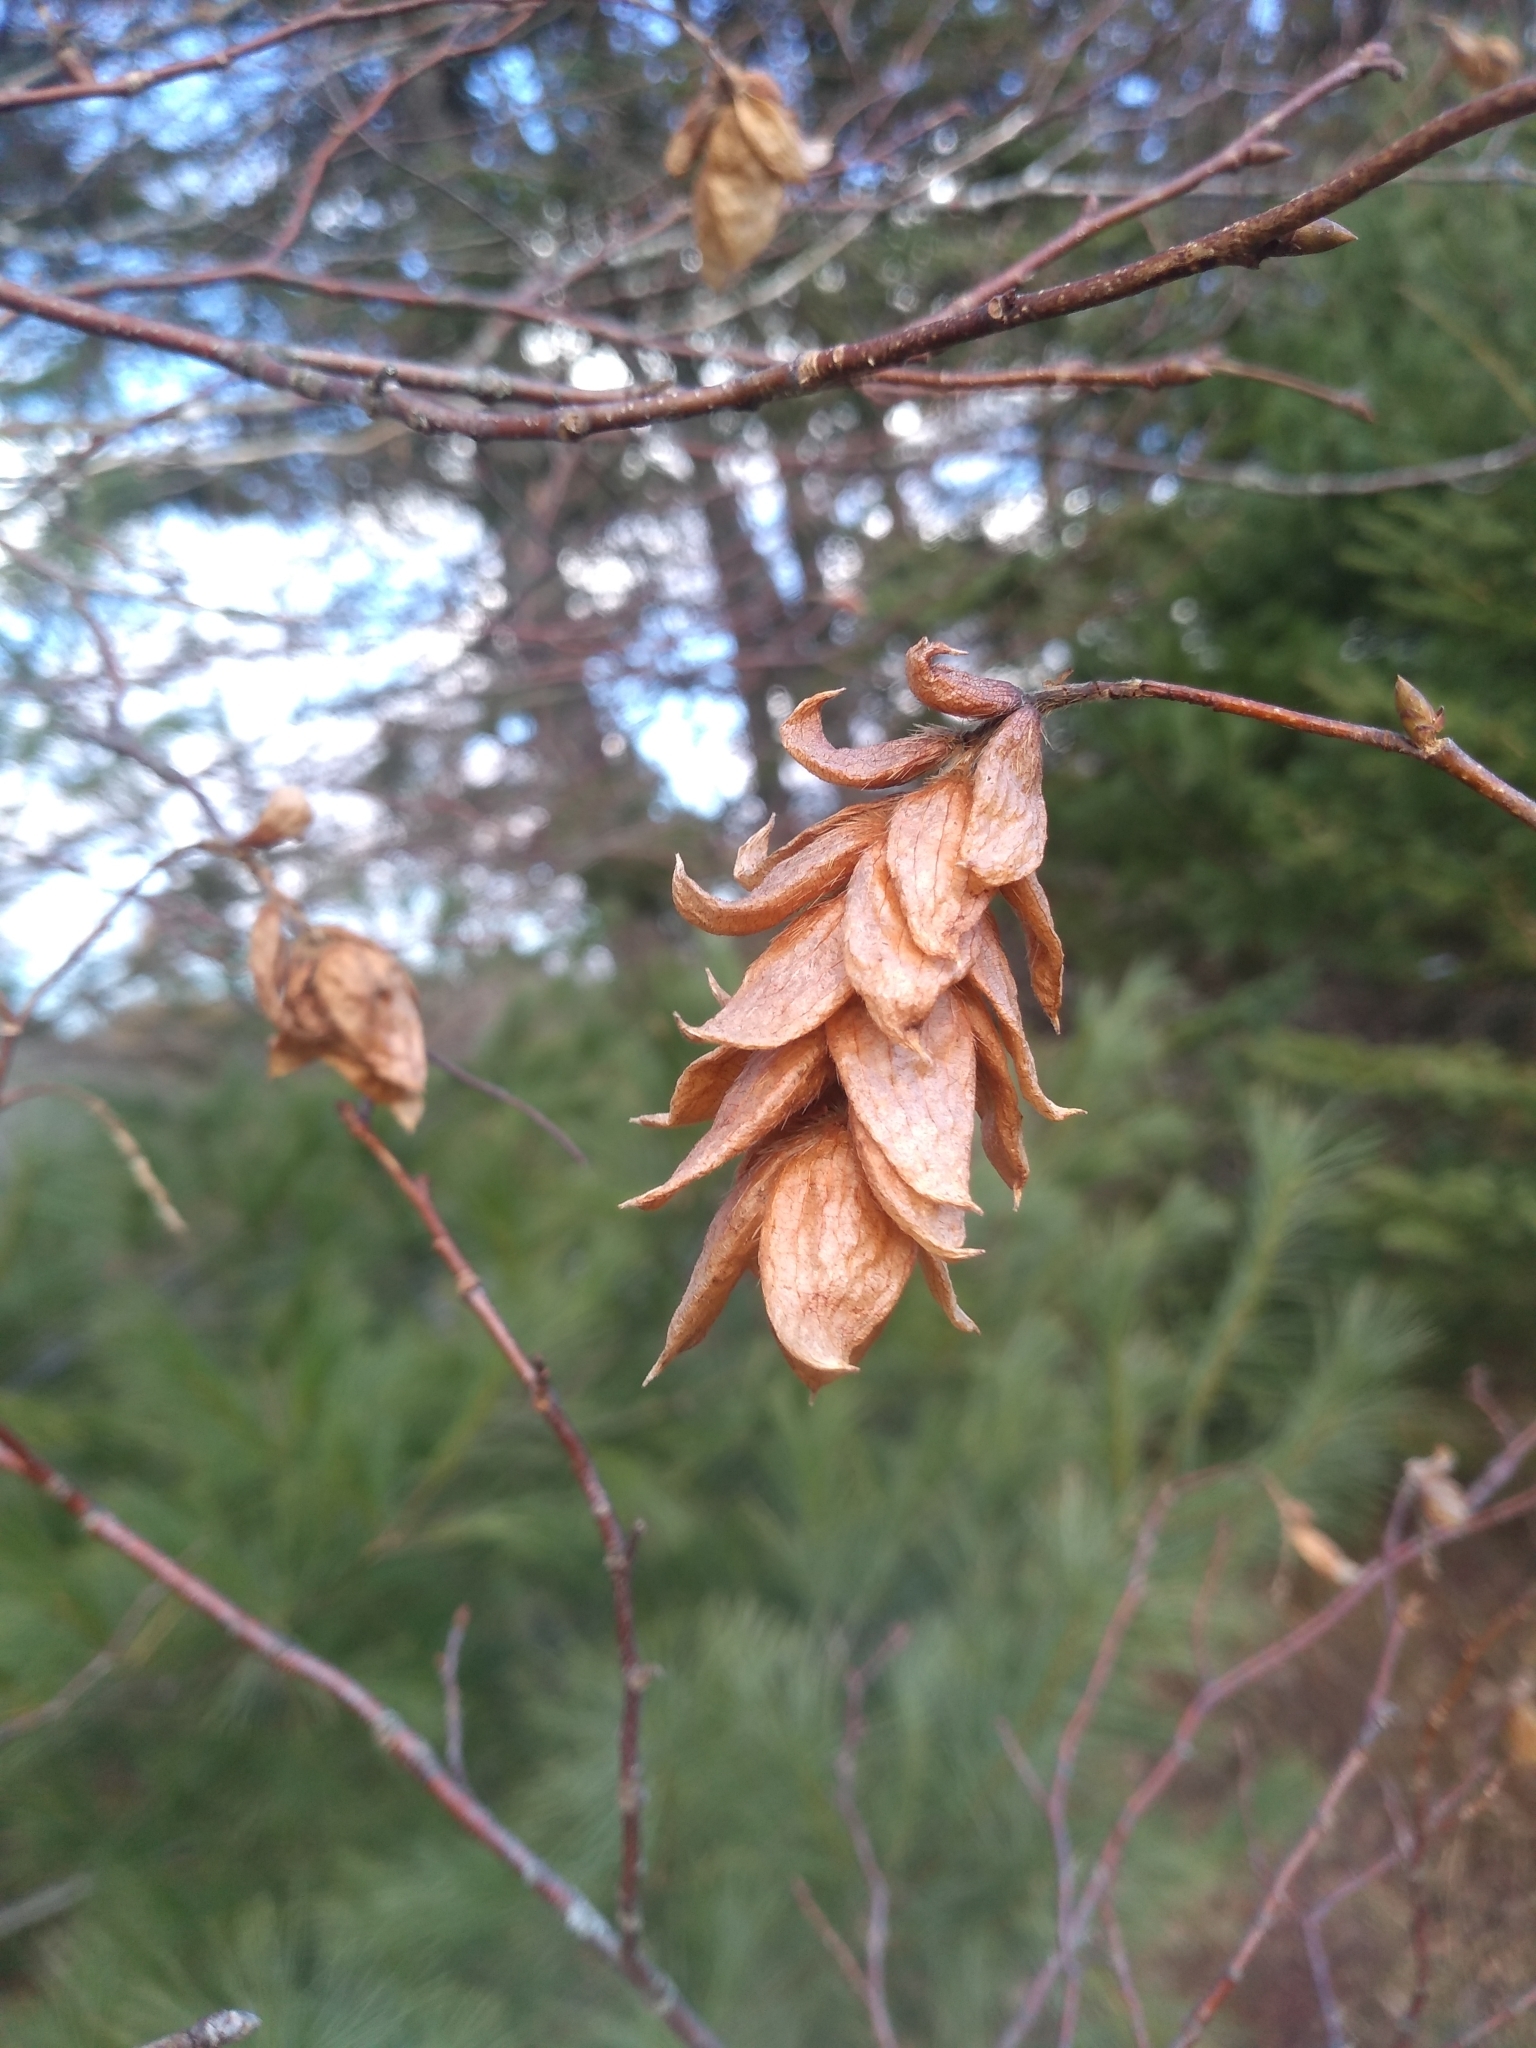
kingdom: Plantae
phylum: Tracheophyta
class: Magnoliopsida
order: Fagales
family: Betulaceae
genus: Ostrya
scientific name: Ostrya virginiana
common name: Ironwood
